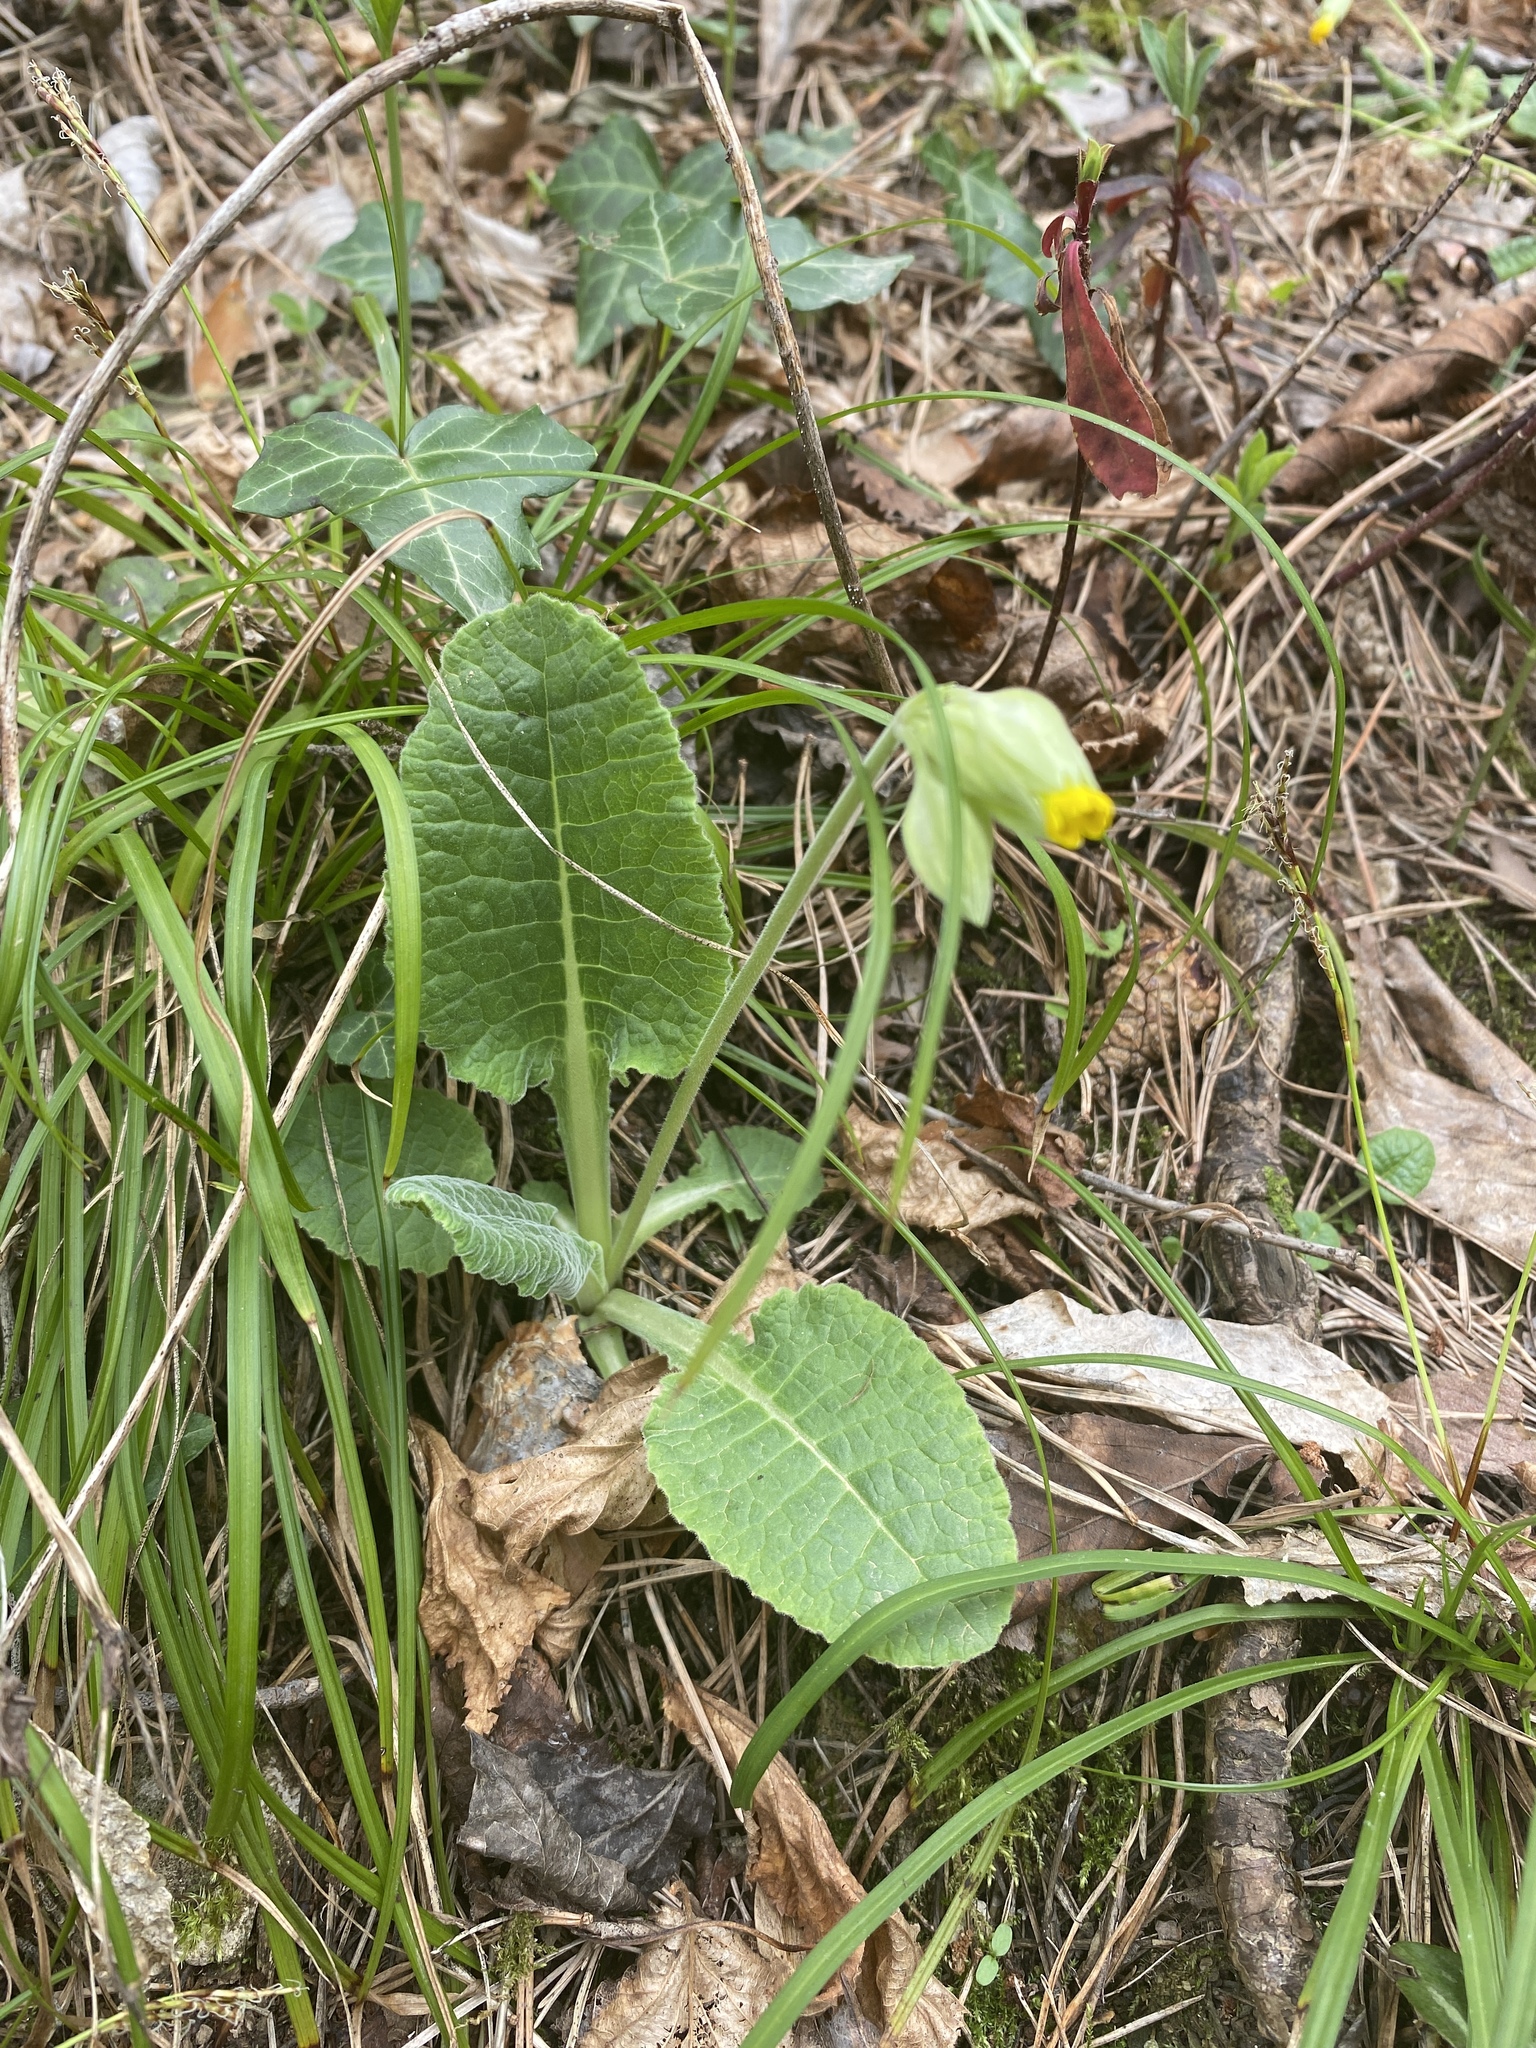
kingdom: Plantae
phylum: Tracheophyta
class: Magnoliopsida
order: Ericales
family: Primulaceae
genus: Primula
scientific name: Primula veris
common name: Cowslip
